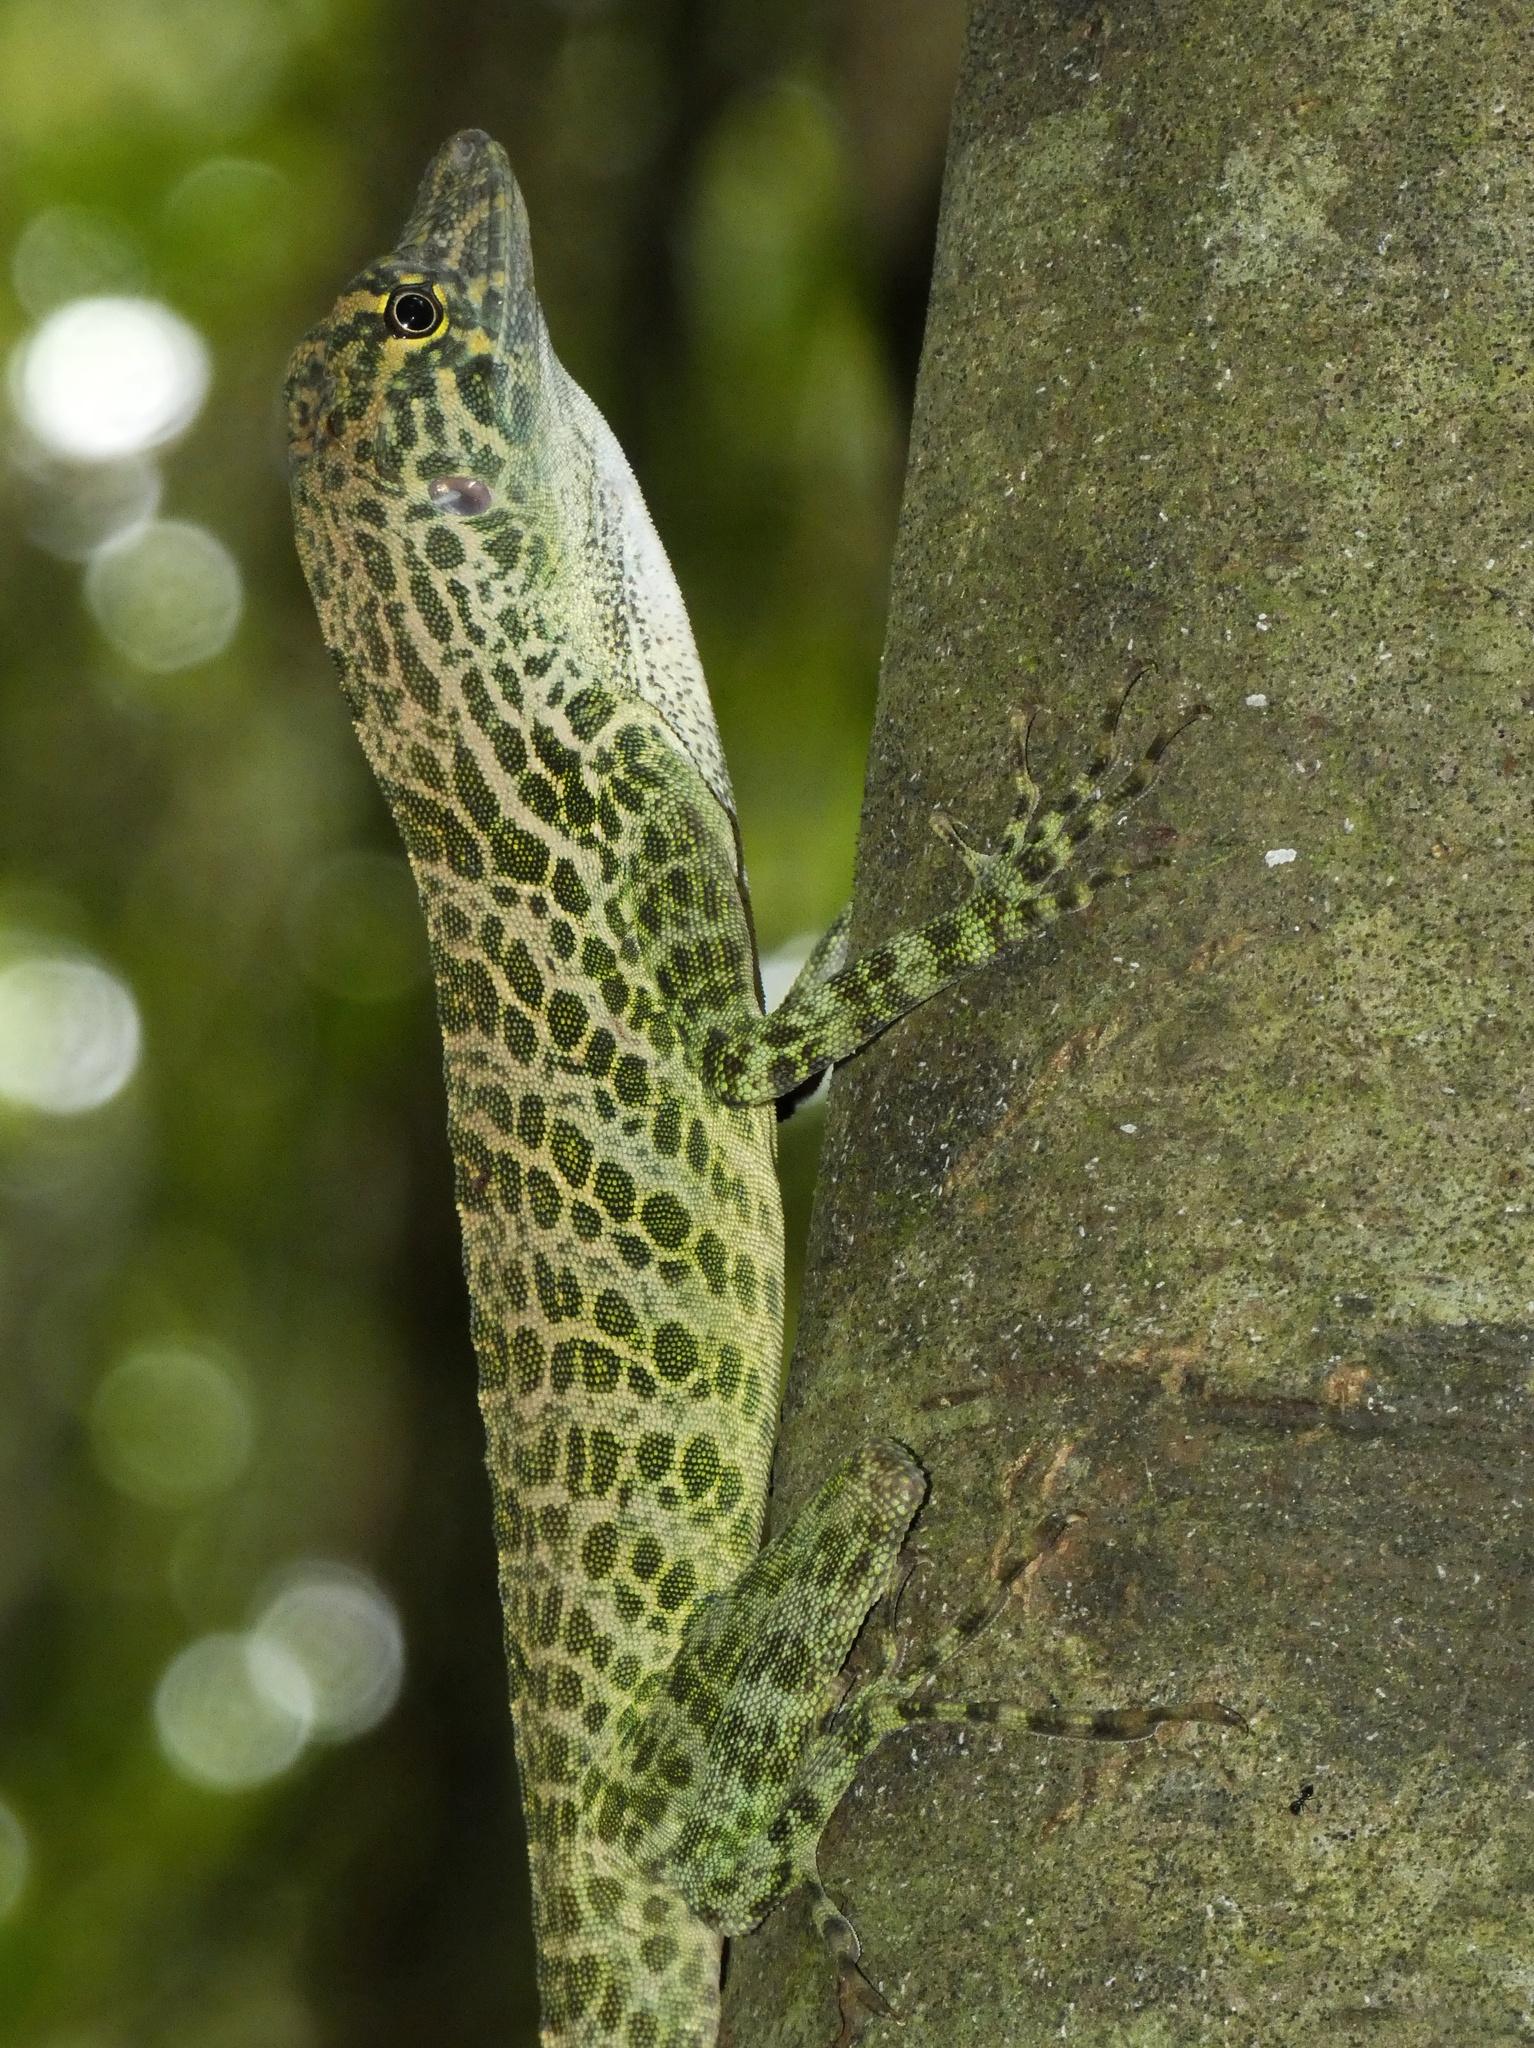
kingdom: Animalia
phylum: Chordata
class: Squamata
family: Dactyloidae
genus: Anolis
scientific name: Anolis frenatus
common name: Bridled anole
